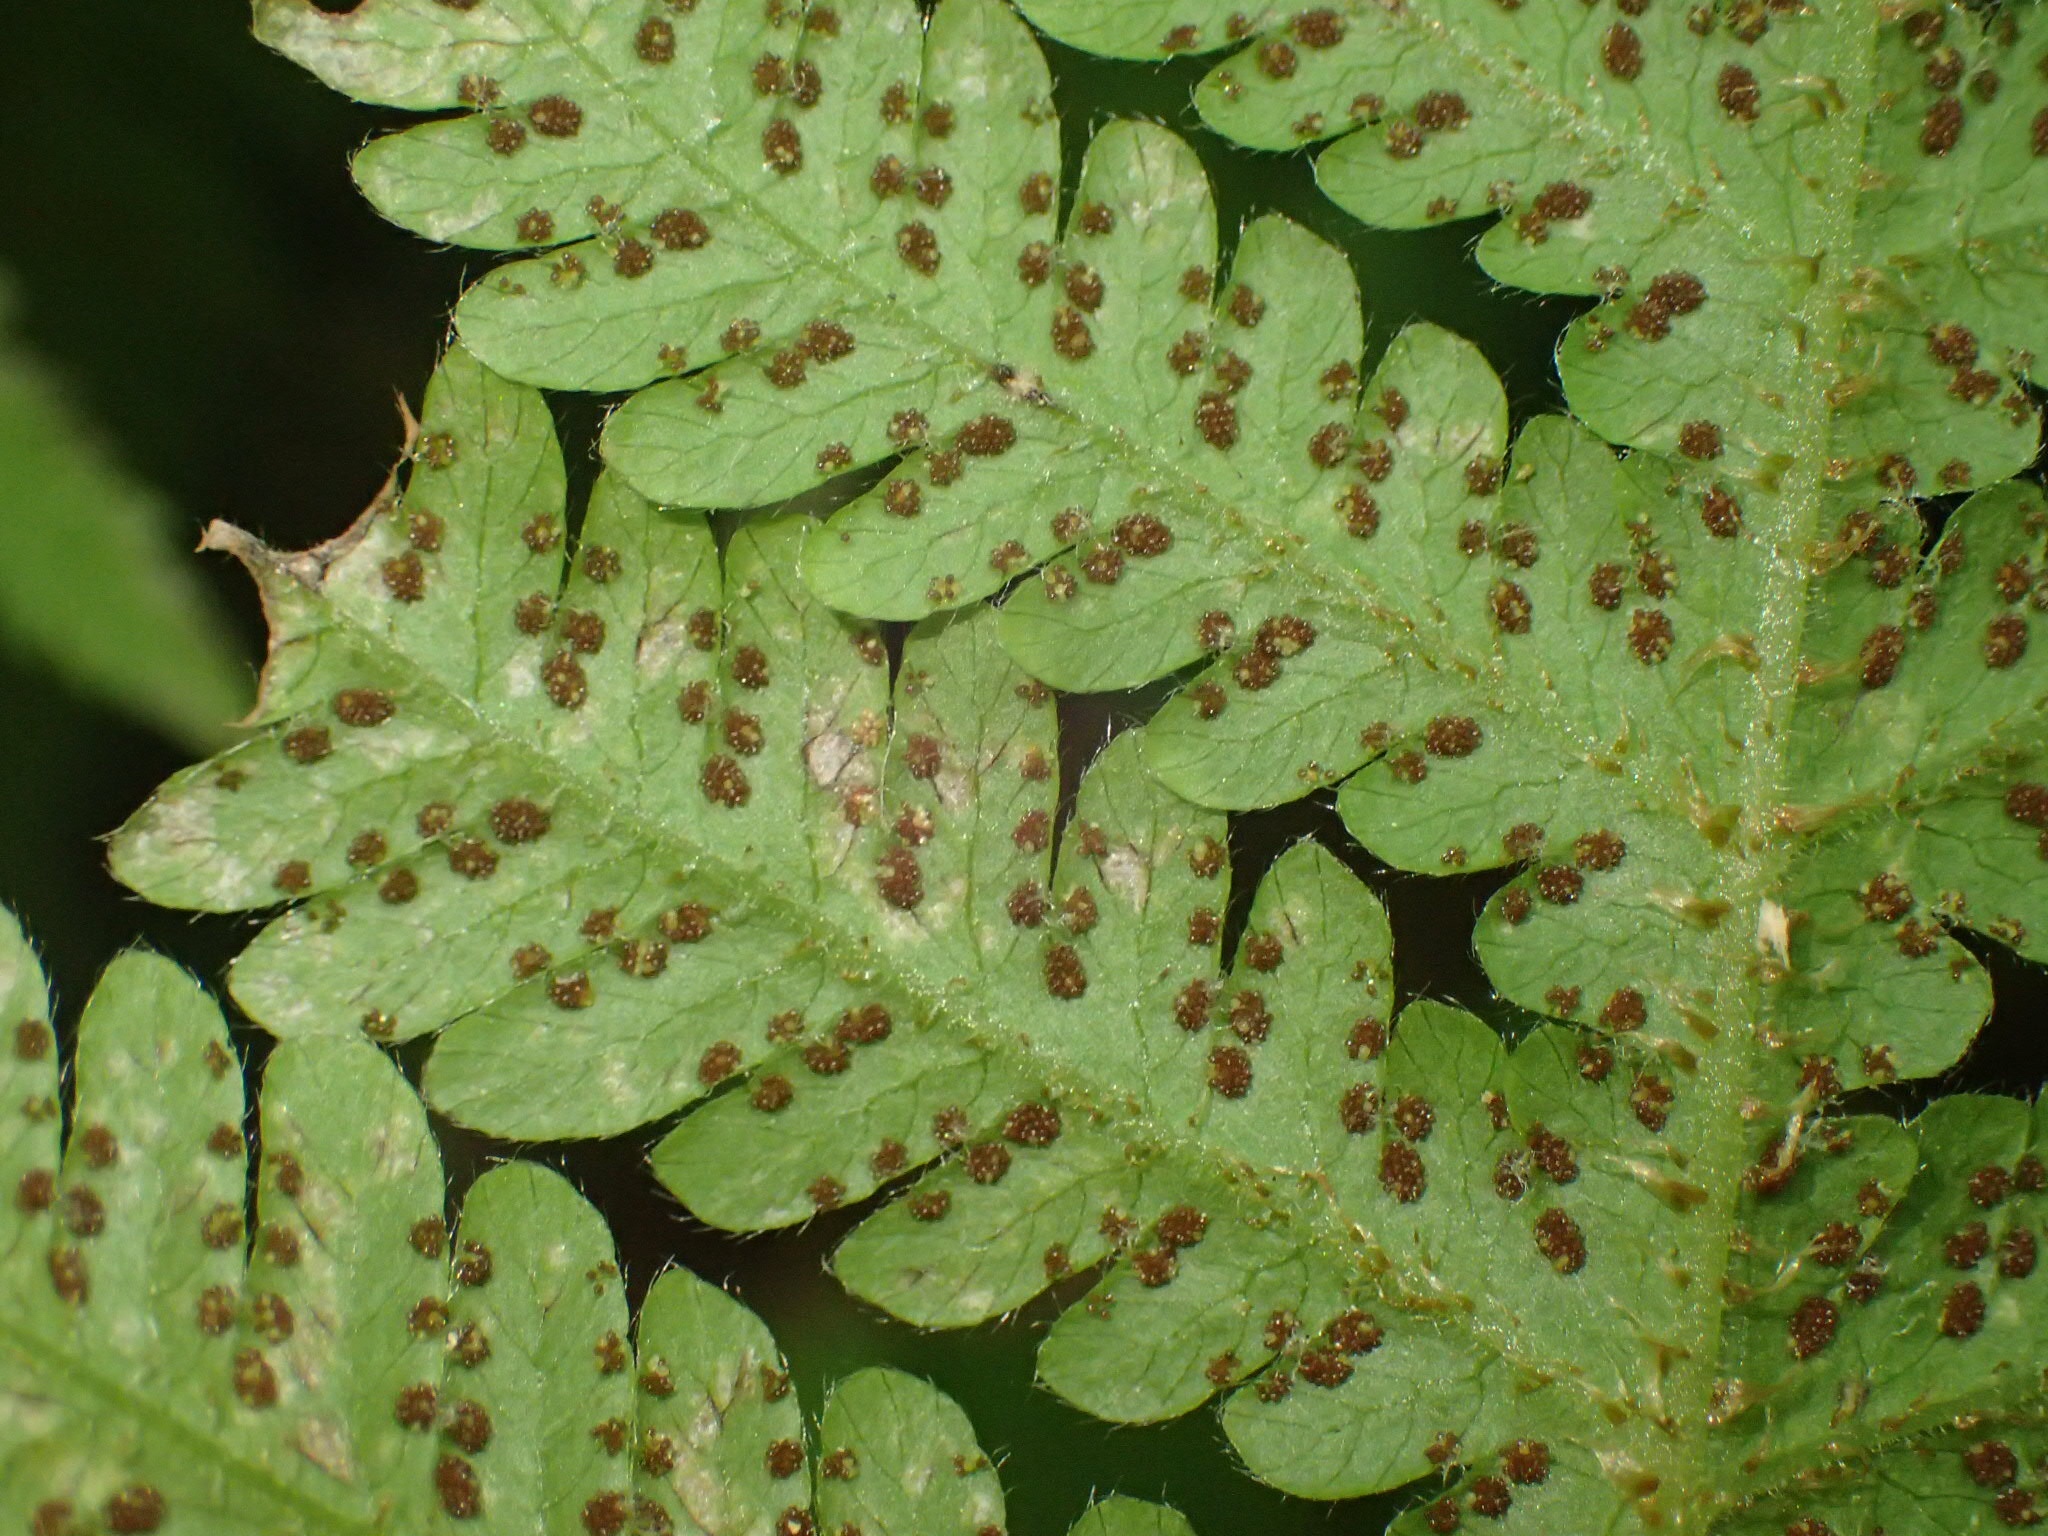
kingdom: Plantae
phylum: Tracheophyta
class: Polypodiopsida
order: Polypodiales
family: Thelypteridaceae
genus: Phegopteris
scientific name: Phegopteris connectilis
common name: Beech fern
